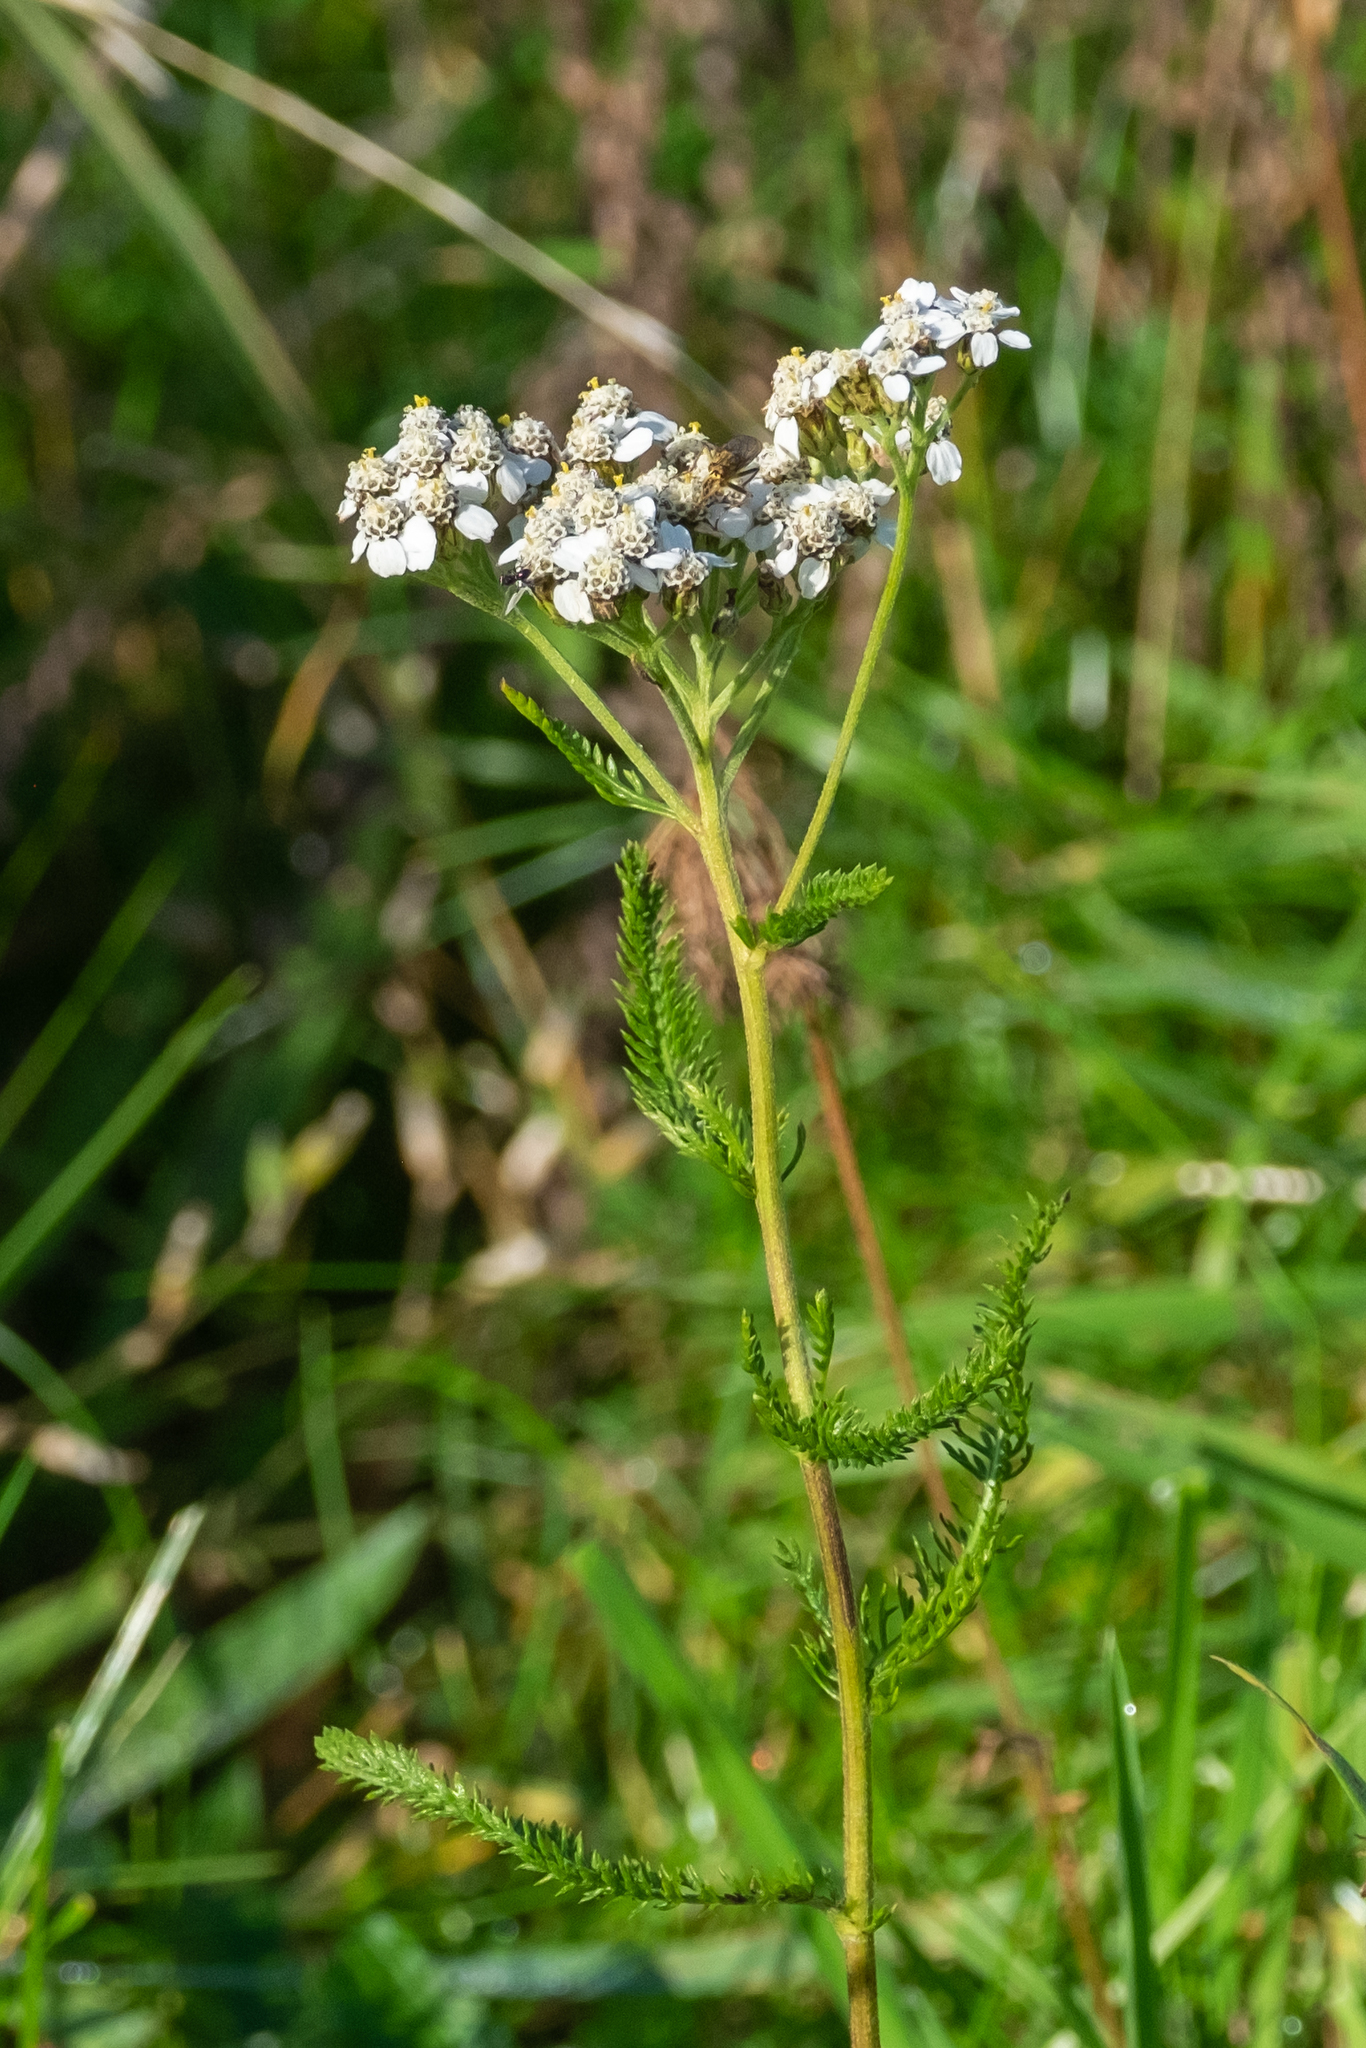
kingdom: Plantae
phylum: Tracheophyta
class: Magnoliopsida
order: Asterales
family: Asteraceae
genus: Achillea
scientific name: Achillea millefolium
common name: Yarrow
